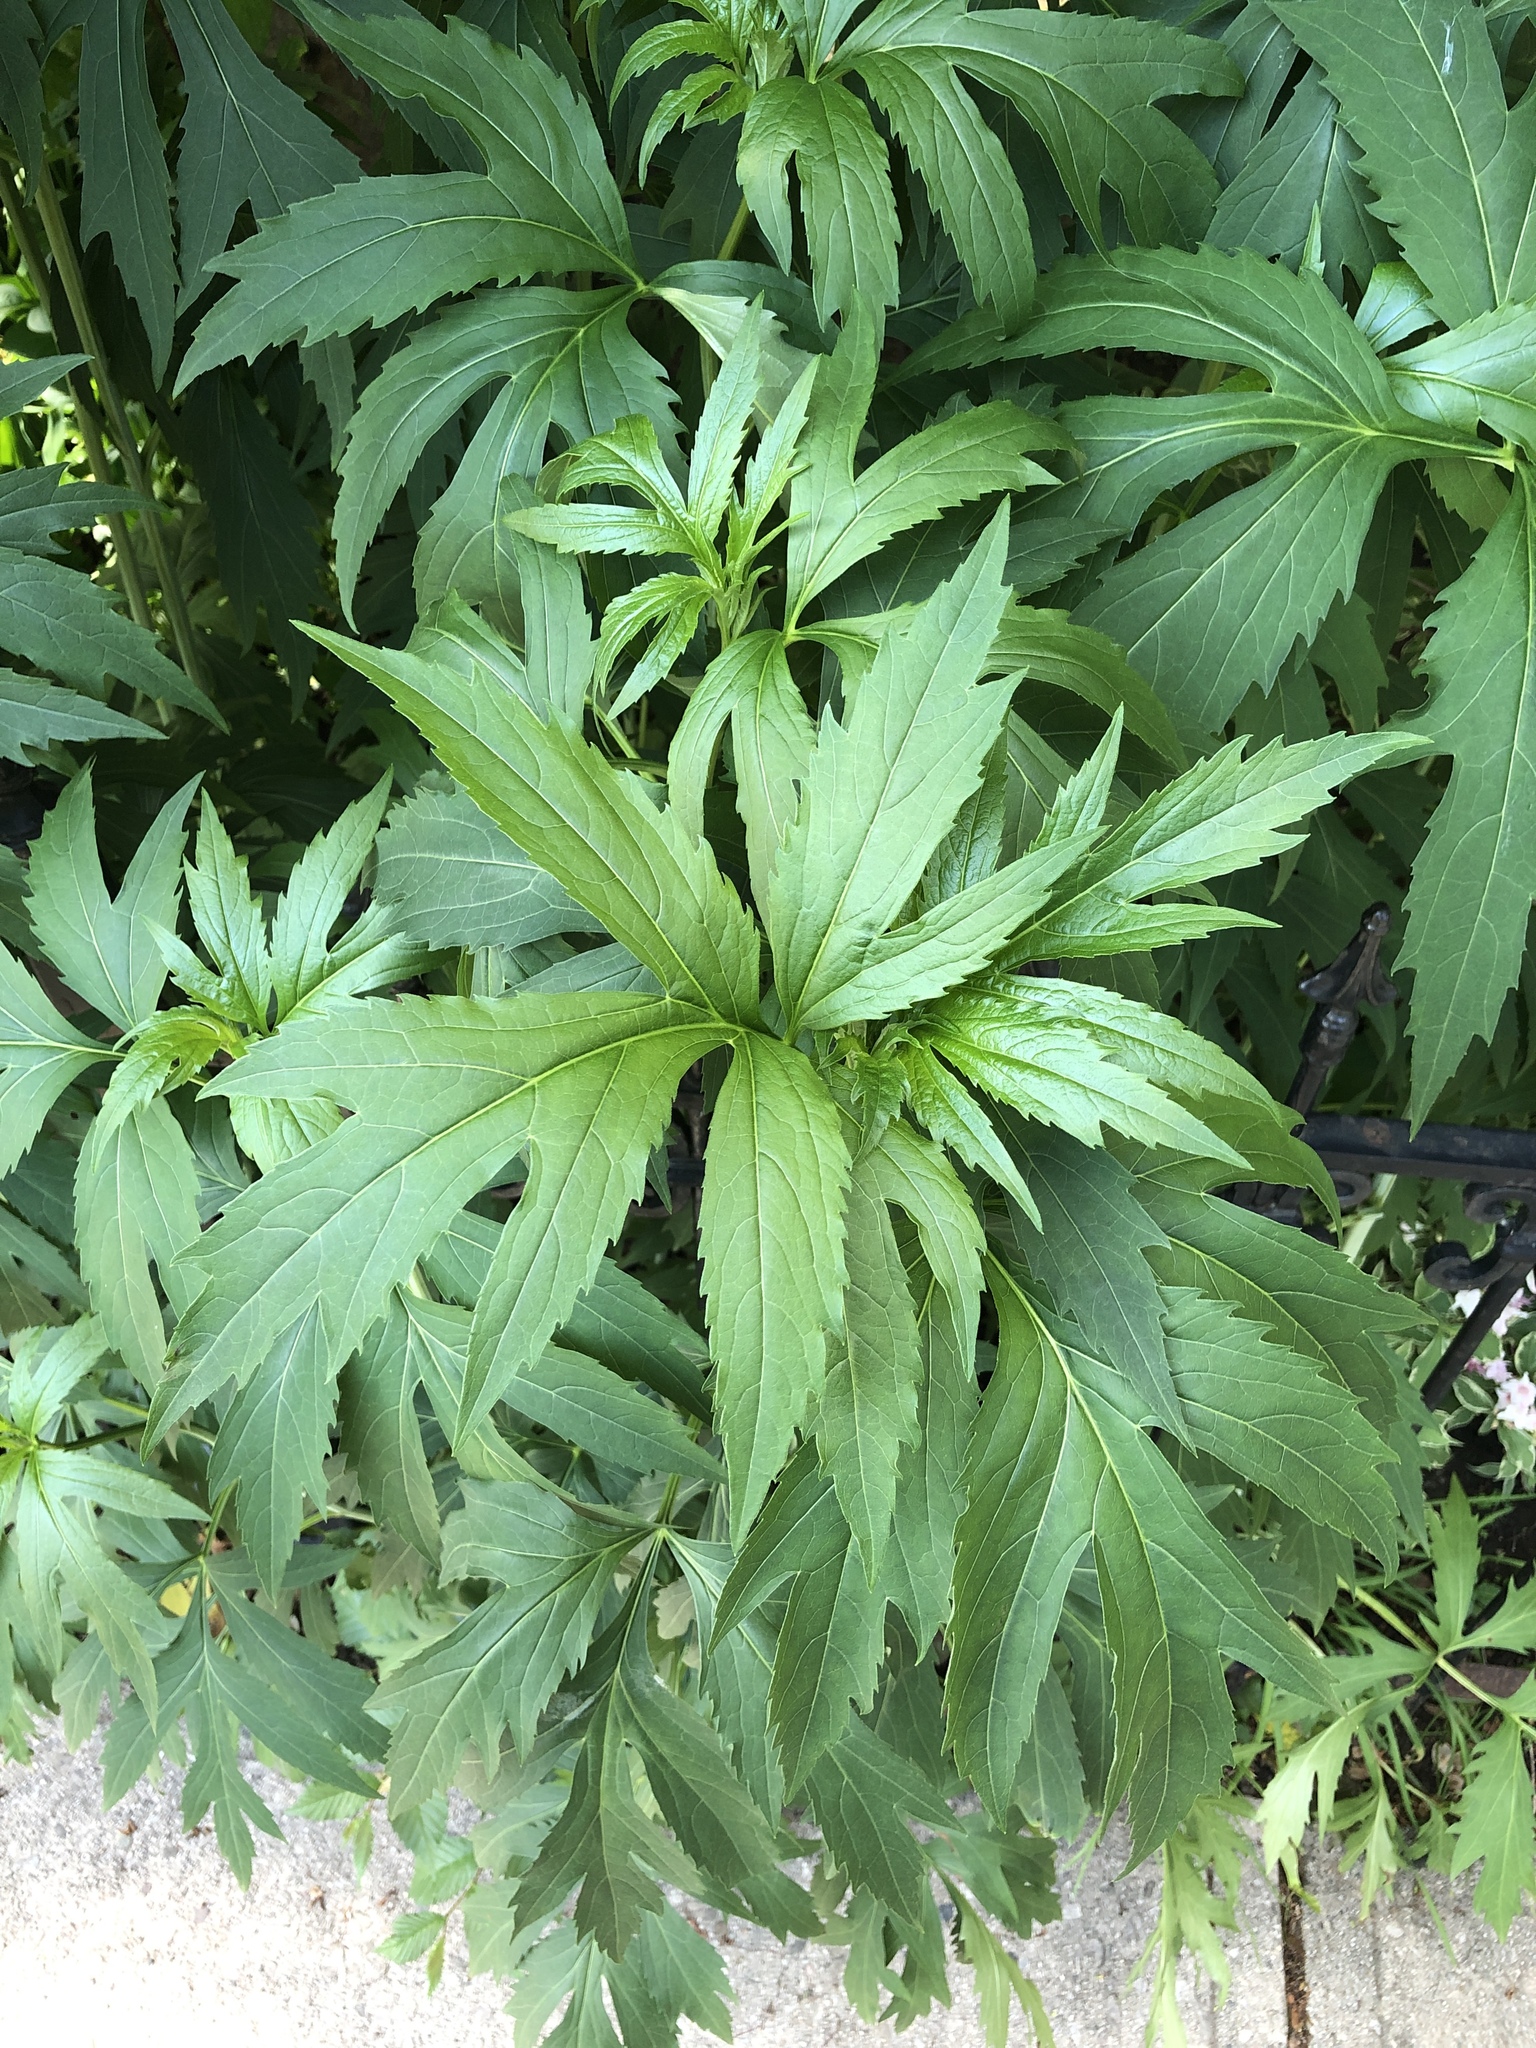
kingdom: Plantae
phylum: Tracheophyta
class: Magnoliopsida
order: Asterales
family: Asteraceae
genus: Rudbeckia
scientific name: Rudbeckia laciniata
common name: Coneflower
